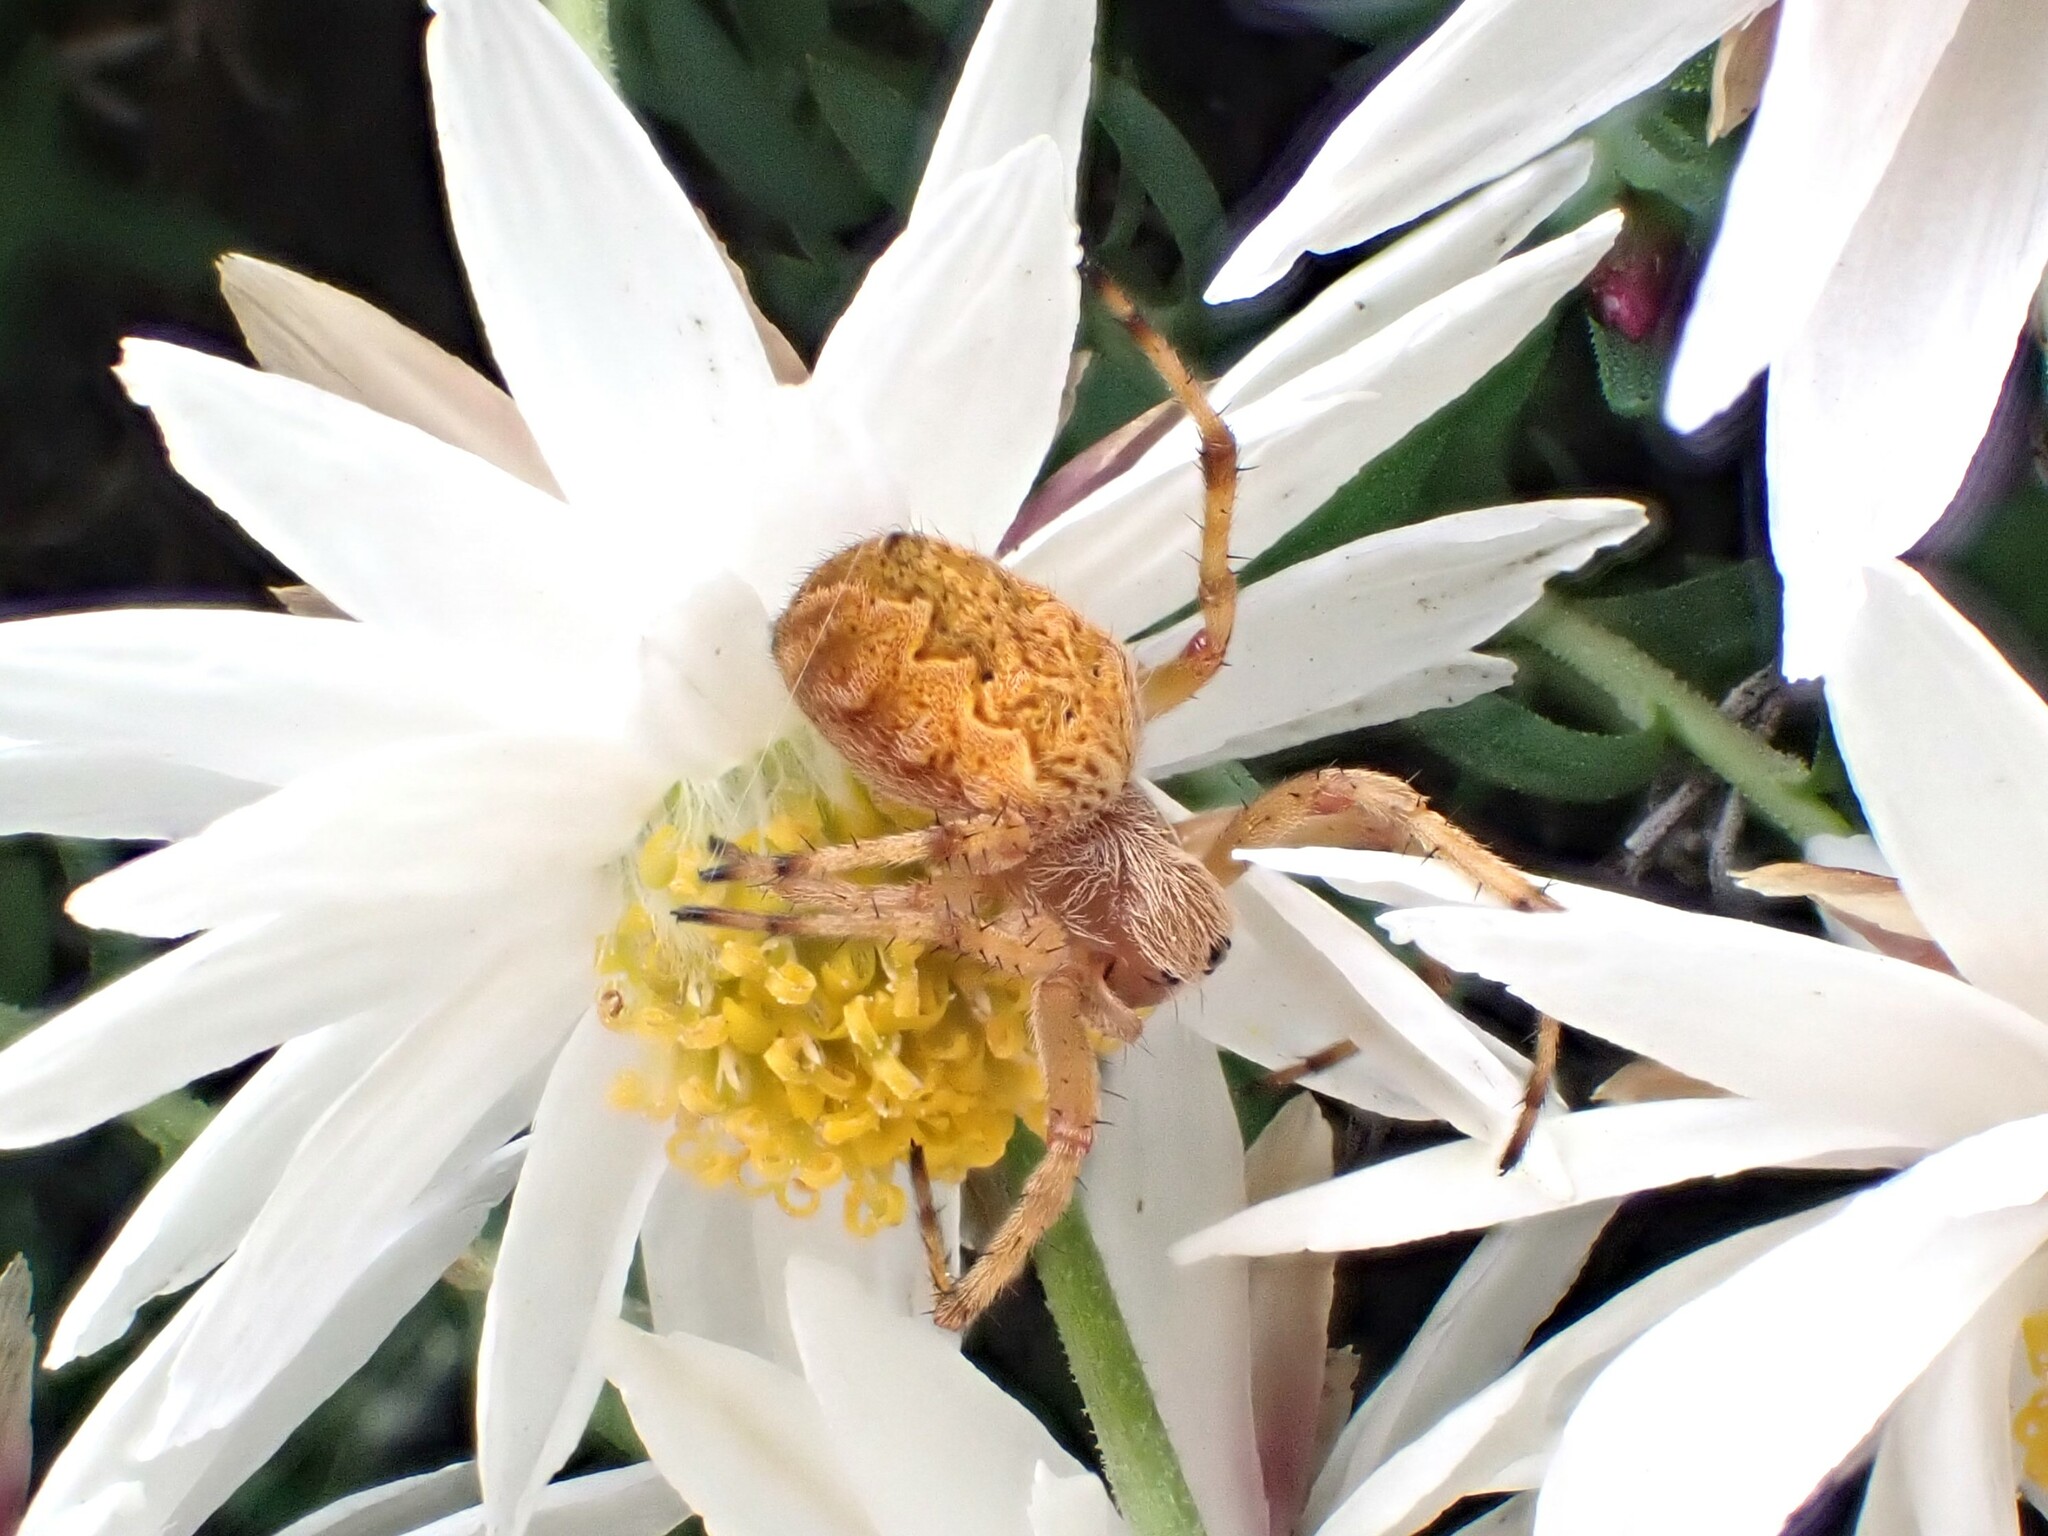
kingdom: Animalia
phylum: Arthropoda
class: Arachnida
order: Araneae
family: Araneidae
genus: Salsa
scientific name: Salsa fuliginata
